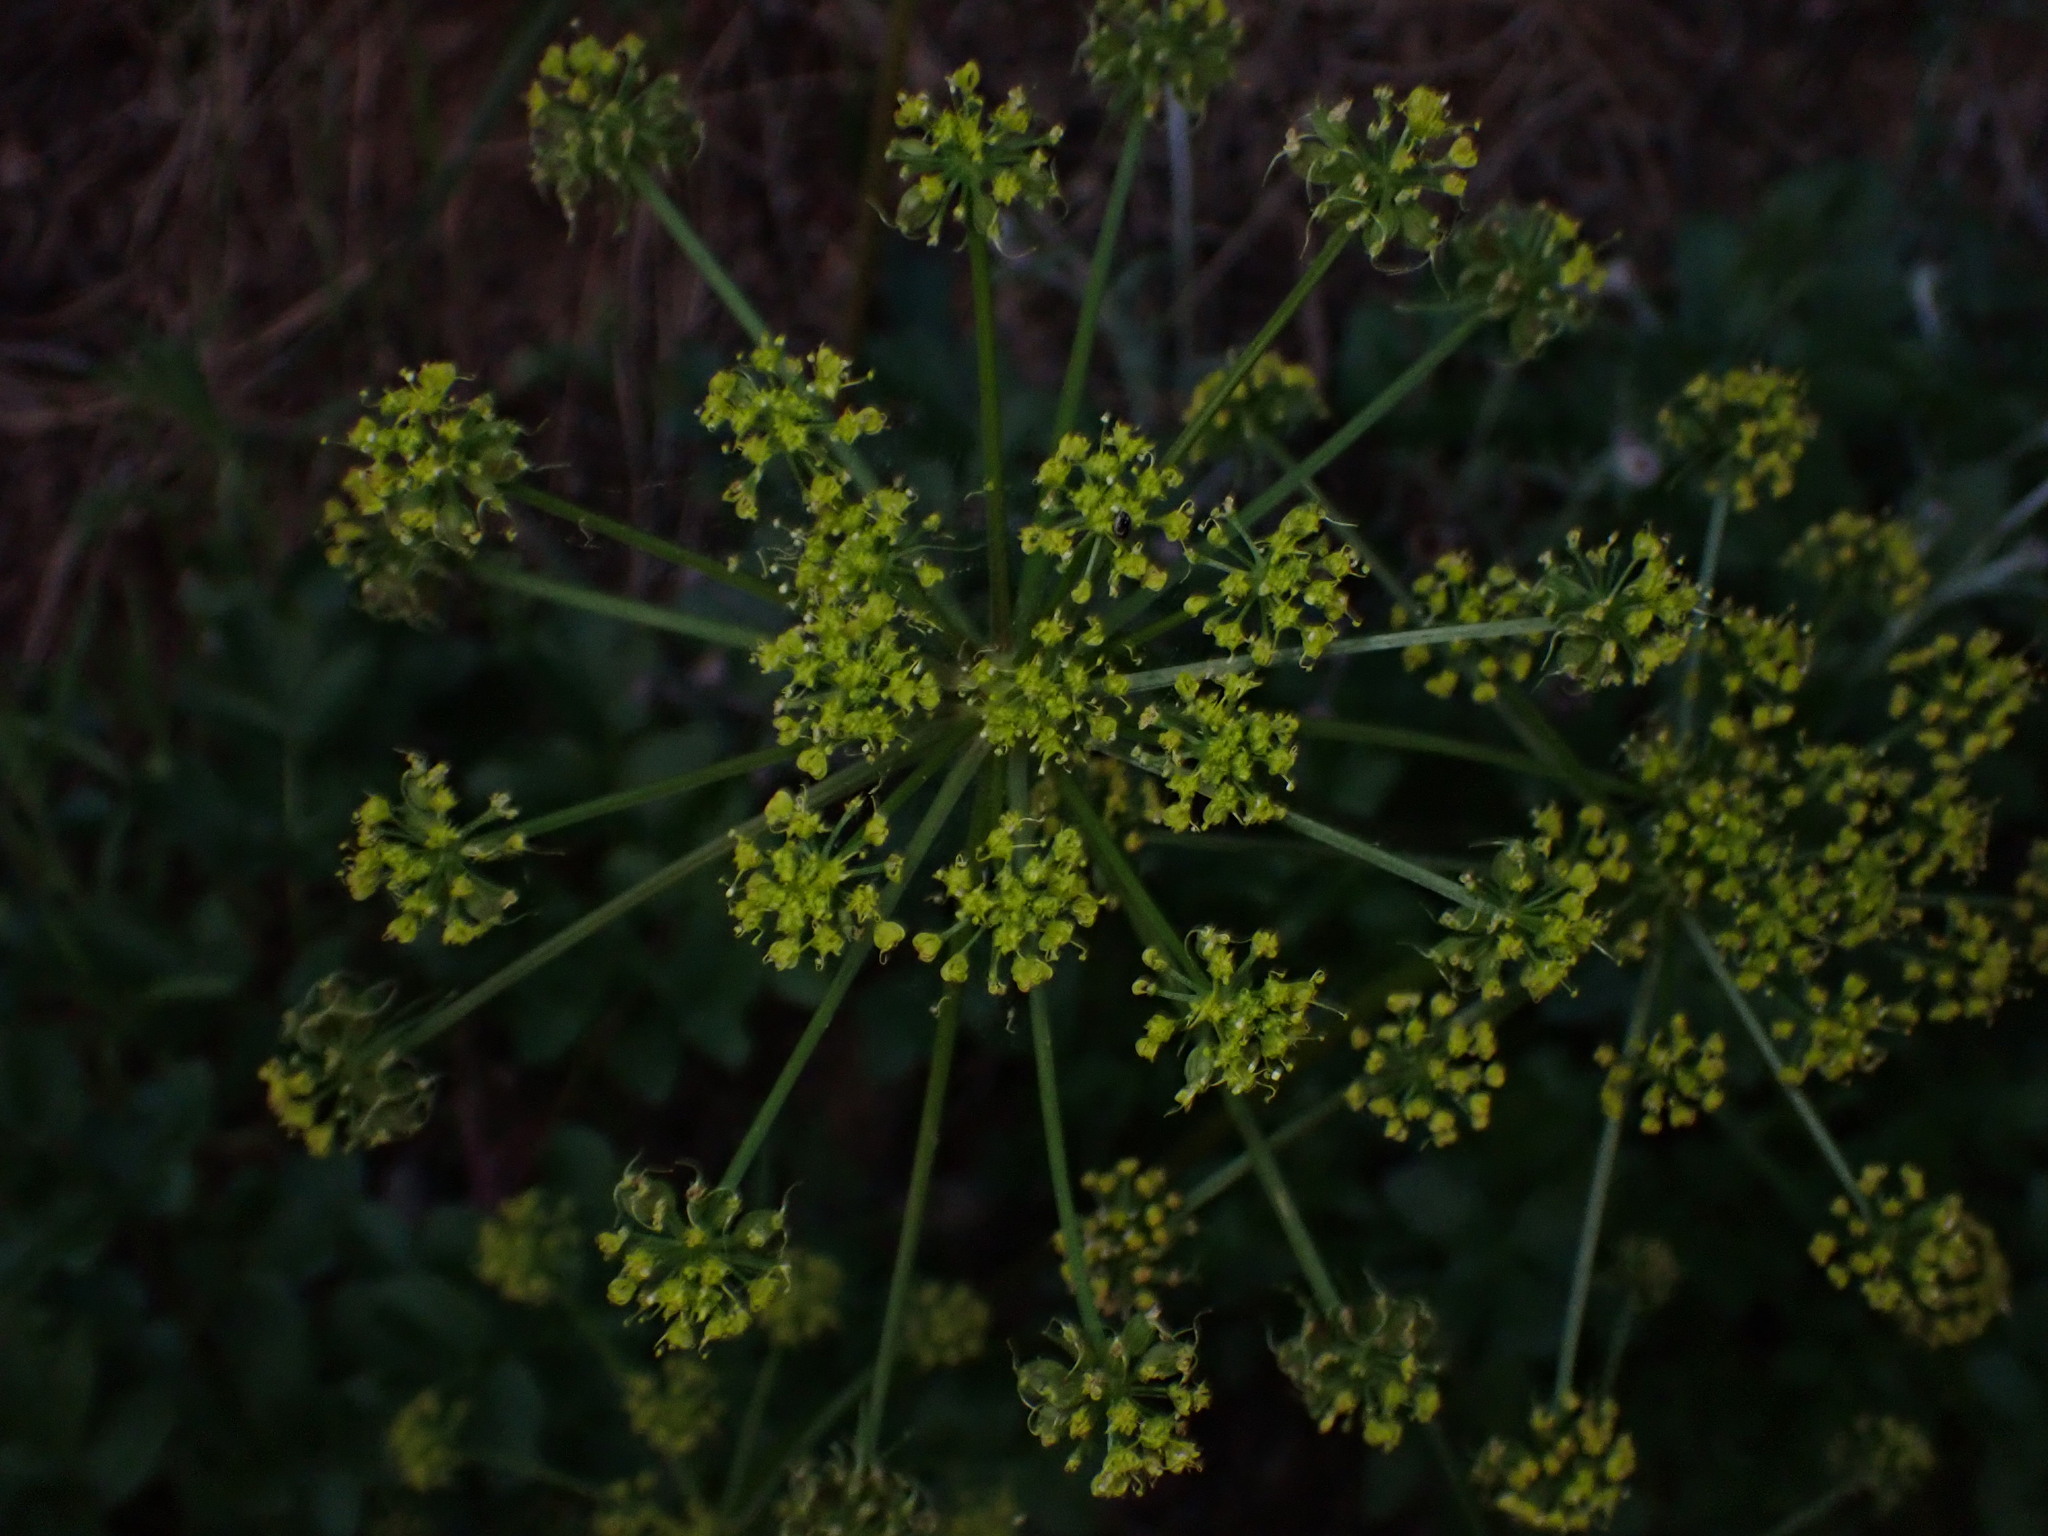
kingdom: Plantae
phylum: Tracheophyta
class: Magnoliopsida
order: Apiales
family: Apiaceae
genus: Tauschia
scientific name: Tauschia hartwegii
